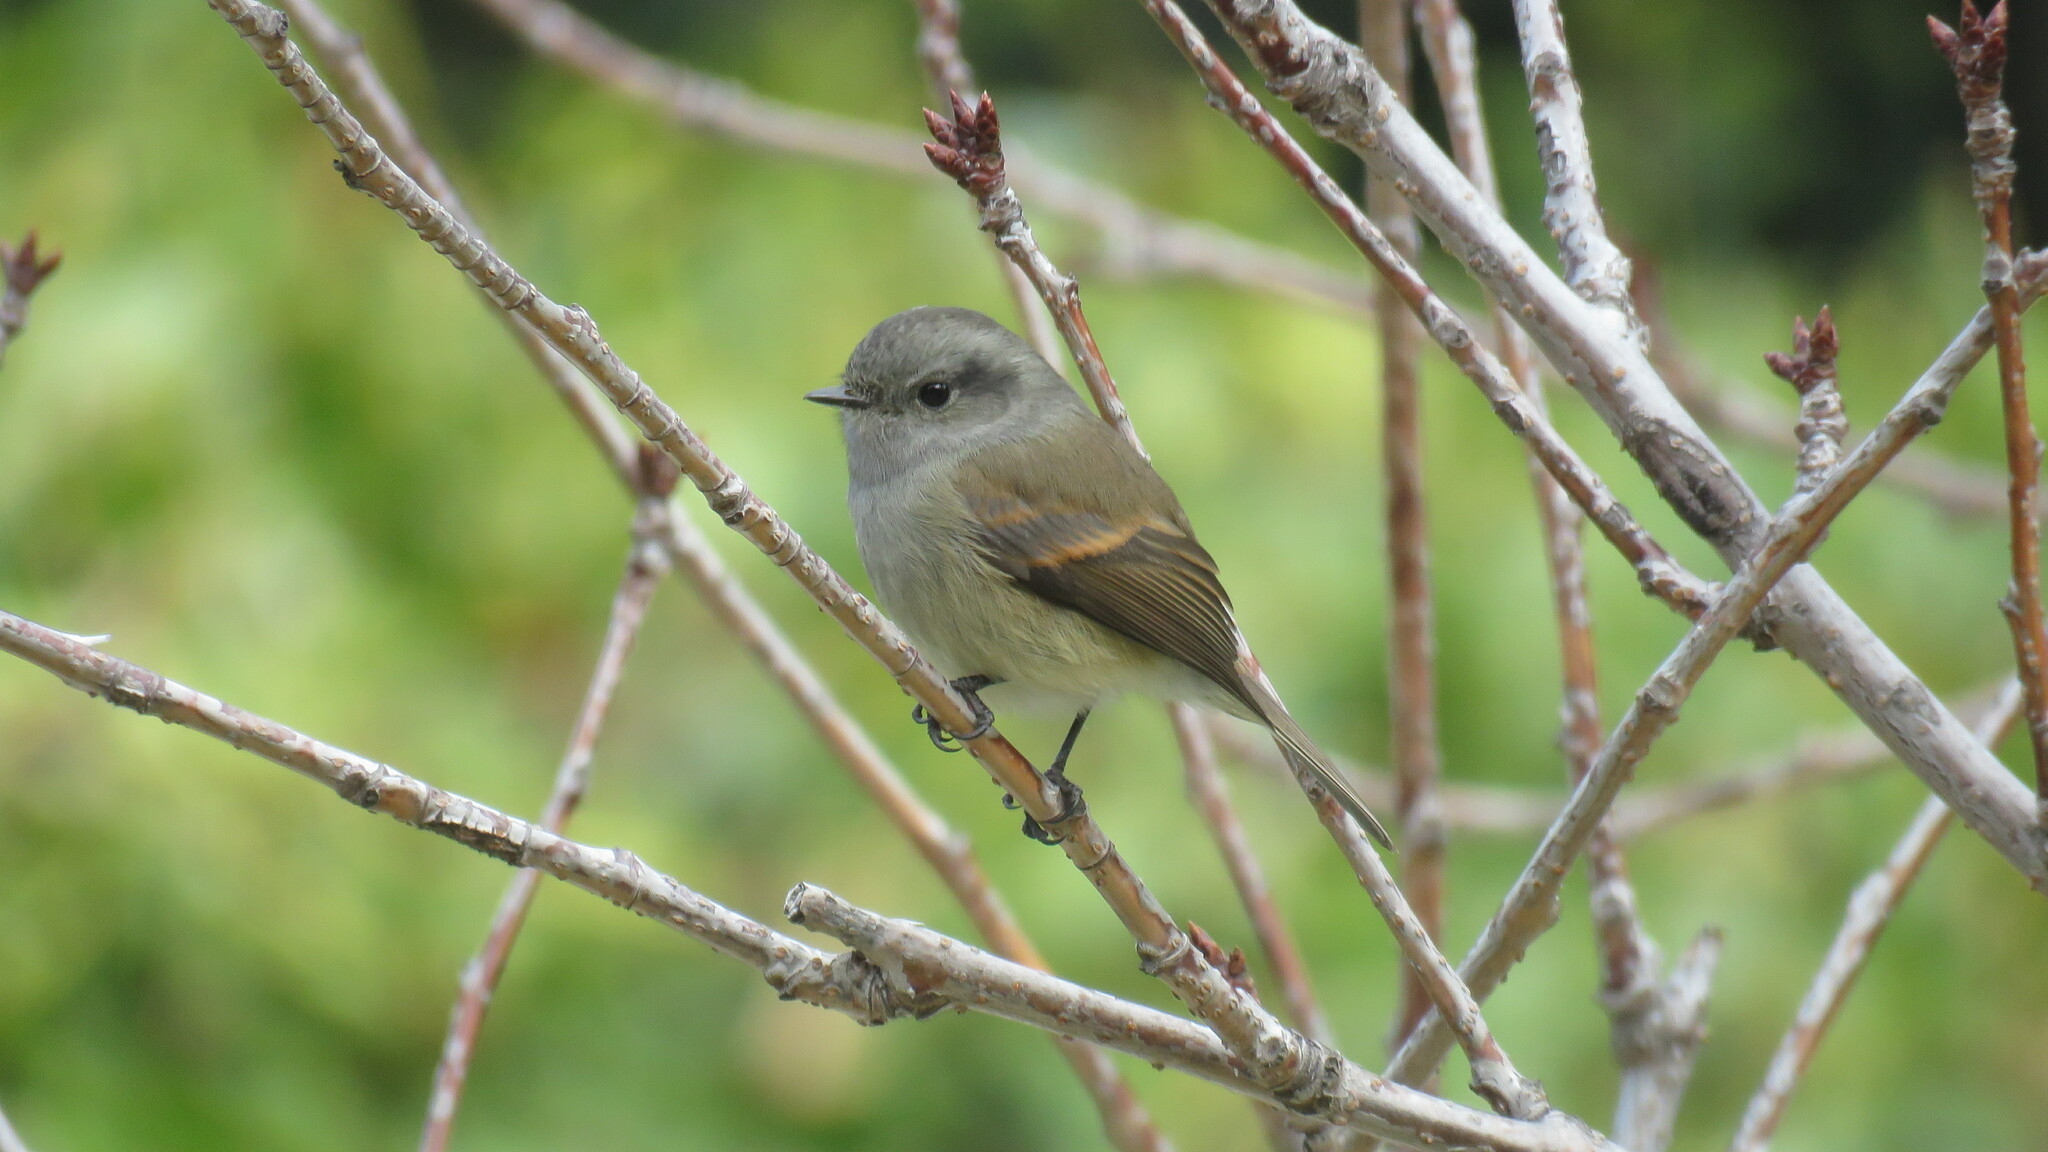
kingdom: Animalia
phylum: Chordata
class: Aves
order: Passeriformes
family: Tyrannidae
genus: Colorhamphus
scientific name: Colorhamphus parvirostris
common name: Patagonian tyrant
